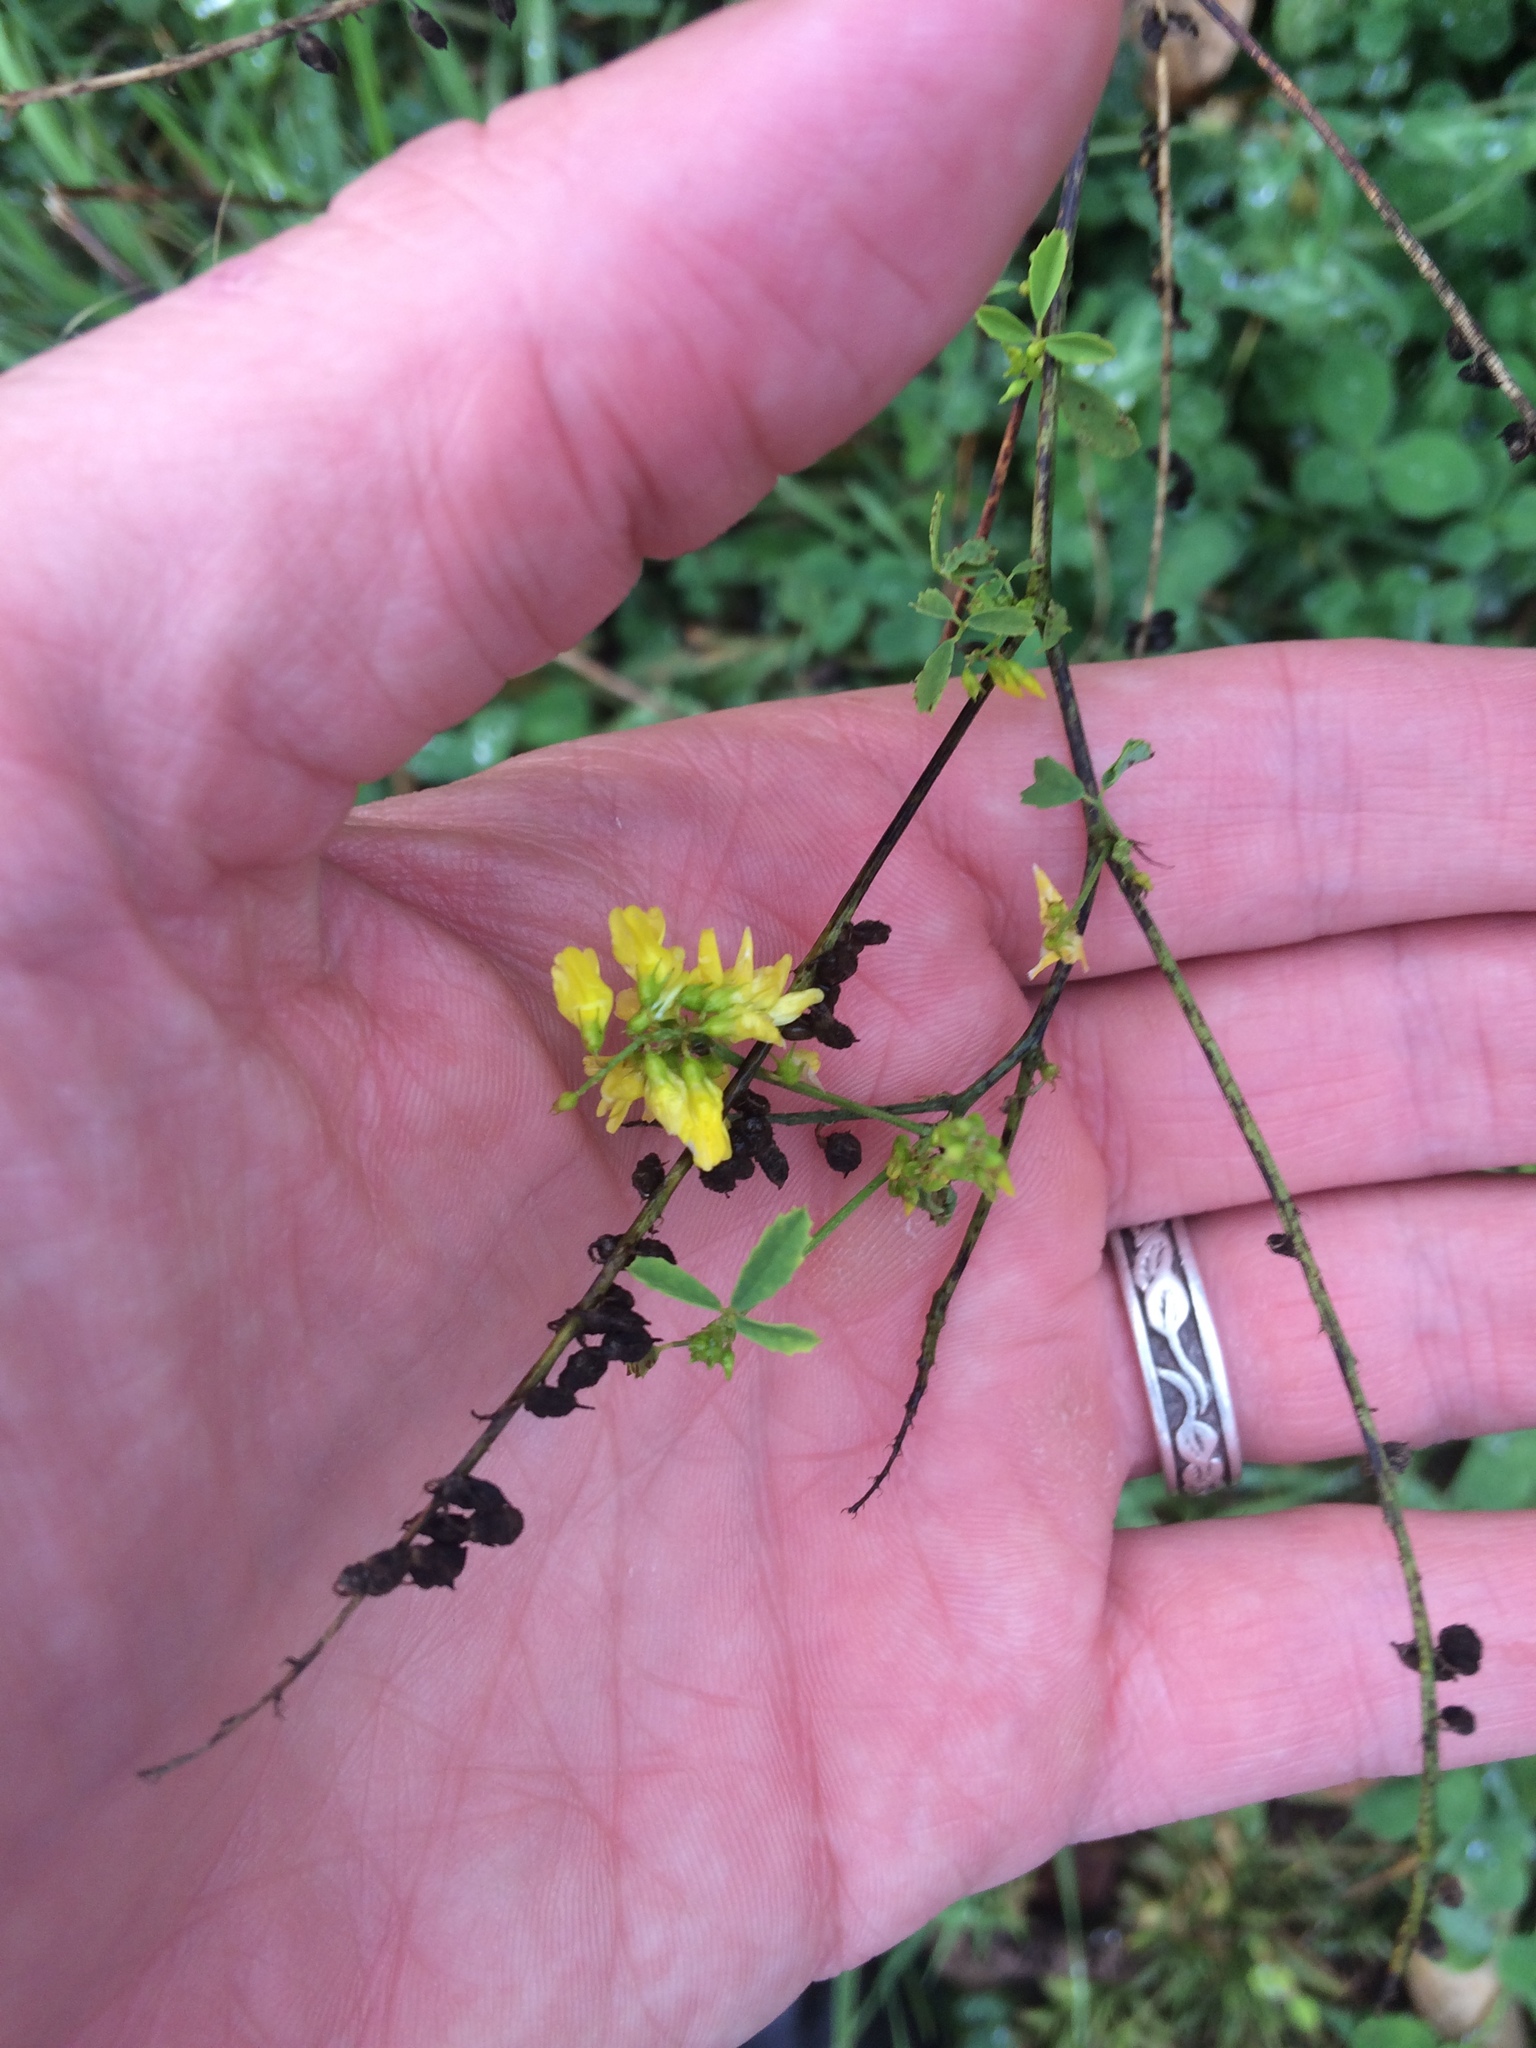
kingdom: Plantae
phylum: Tracheophyta
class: Magnoliopsida
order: Fabales
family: Fabaceae
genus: Melilotus
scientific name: Melilotus officinalis
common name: Sweetclover
